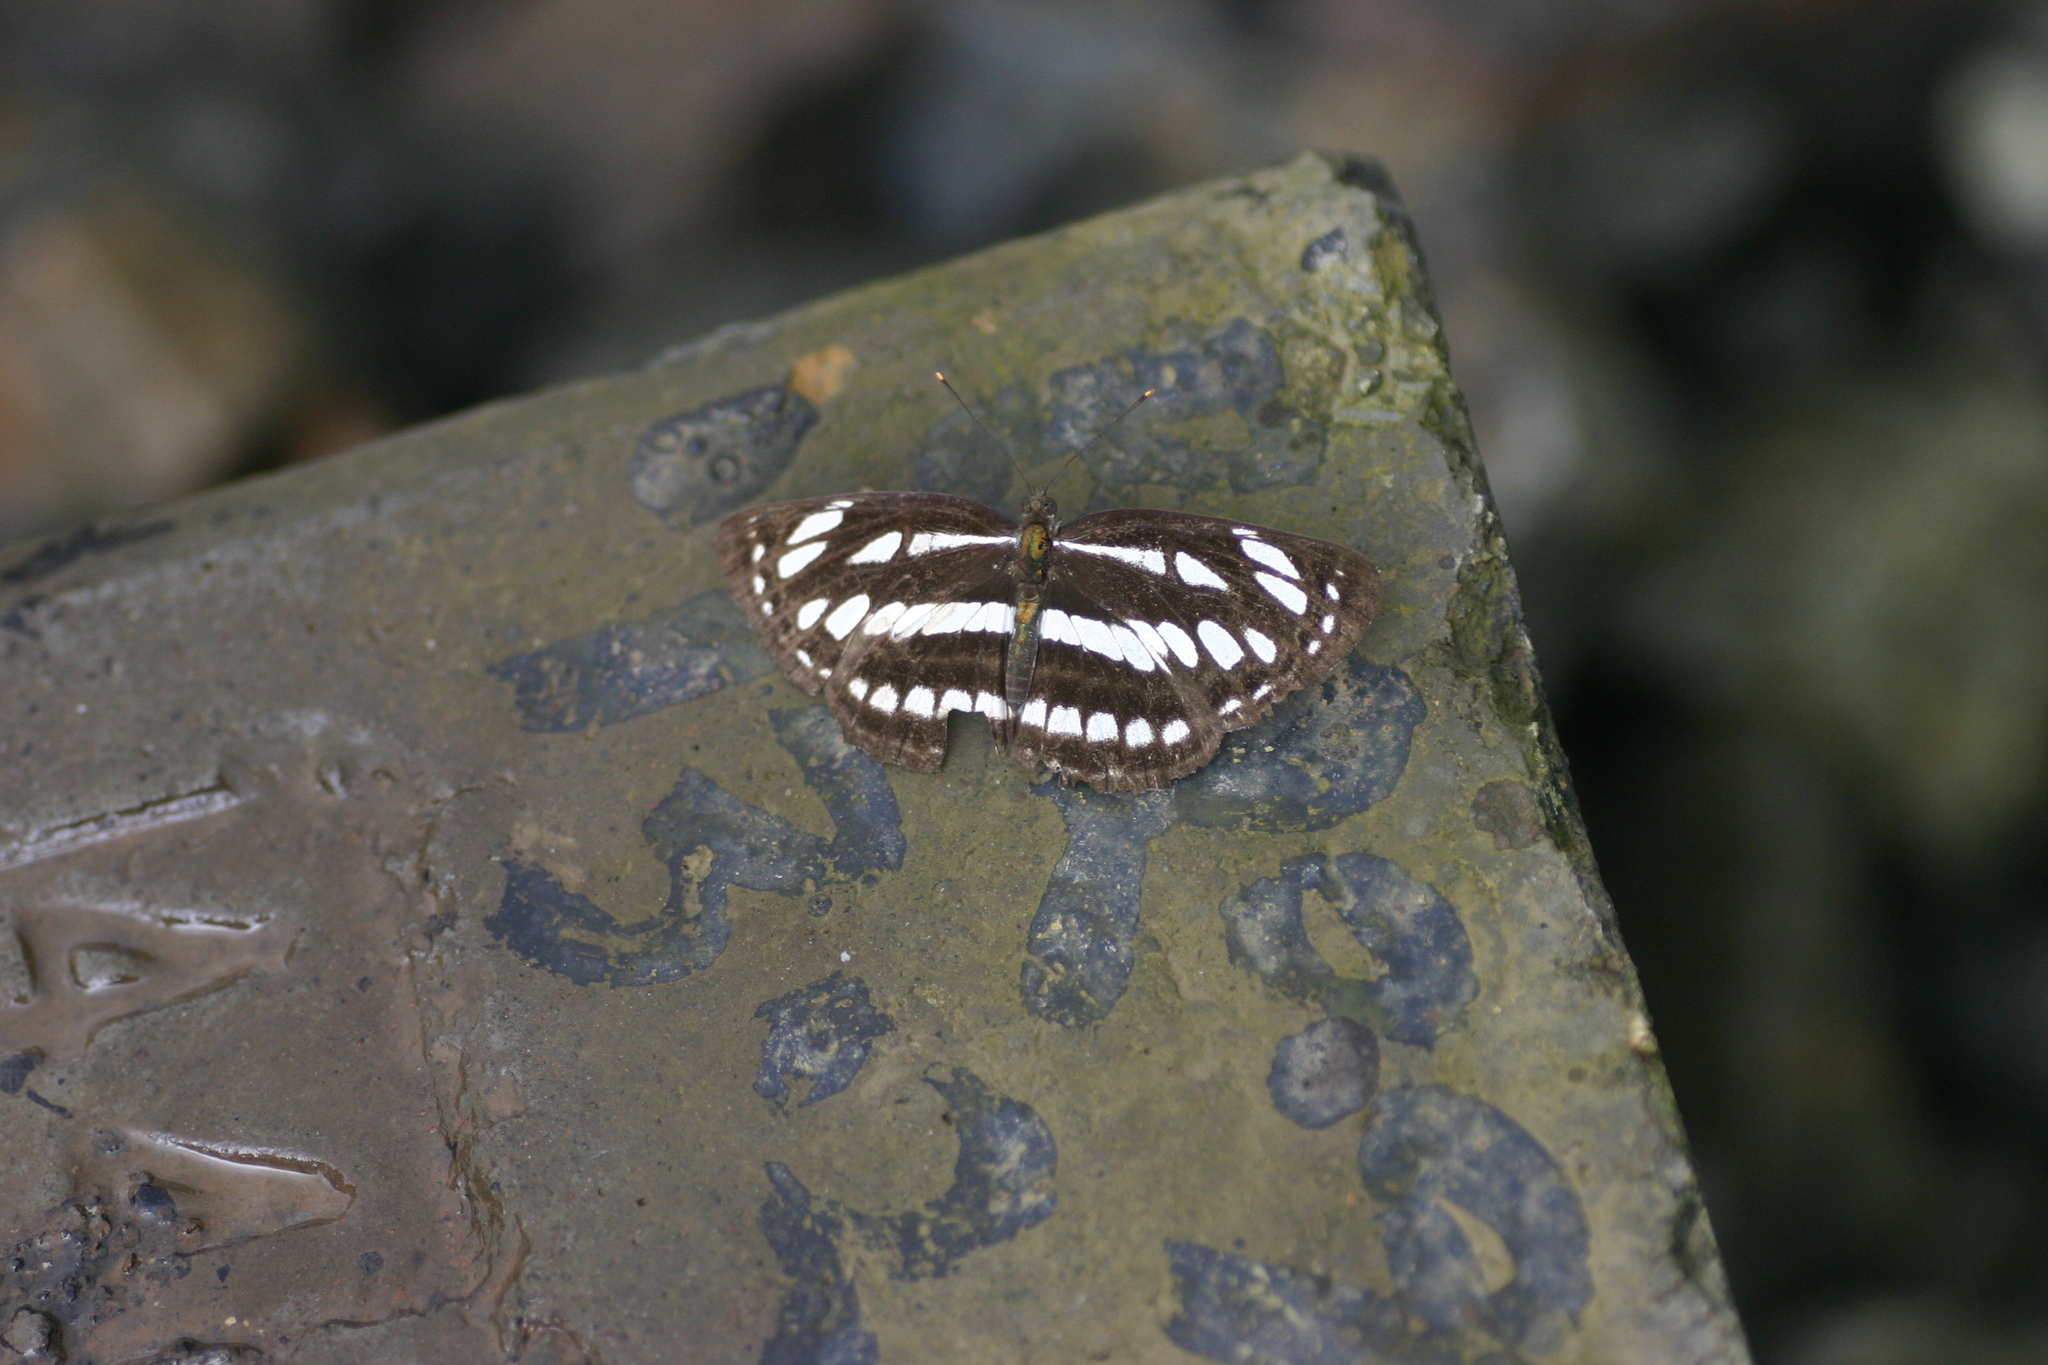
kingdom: Animalia
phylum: Arthropoda
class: Insecta
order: Lepidoptera
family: Nymphalidae
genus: Neptis
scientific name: Neptis hylas
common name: Common sailer
